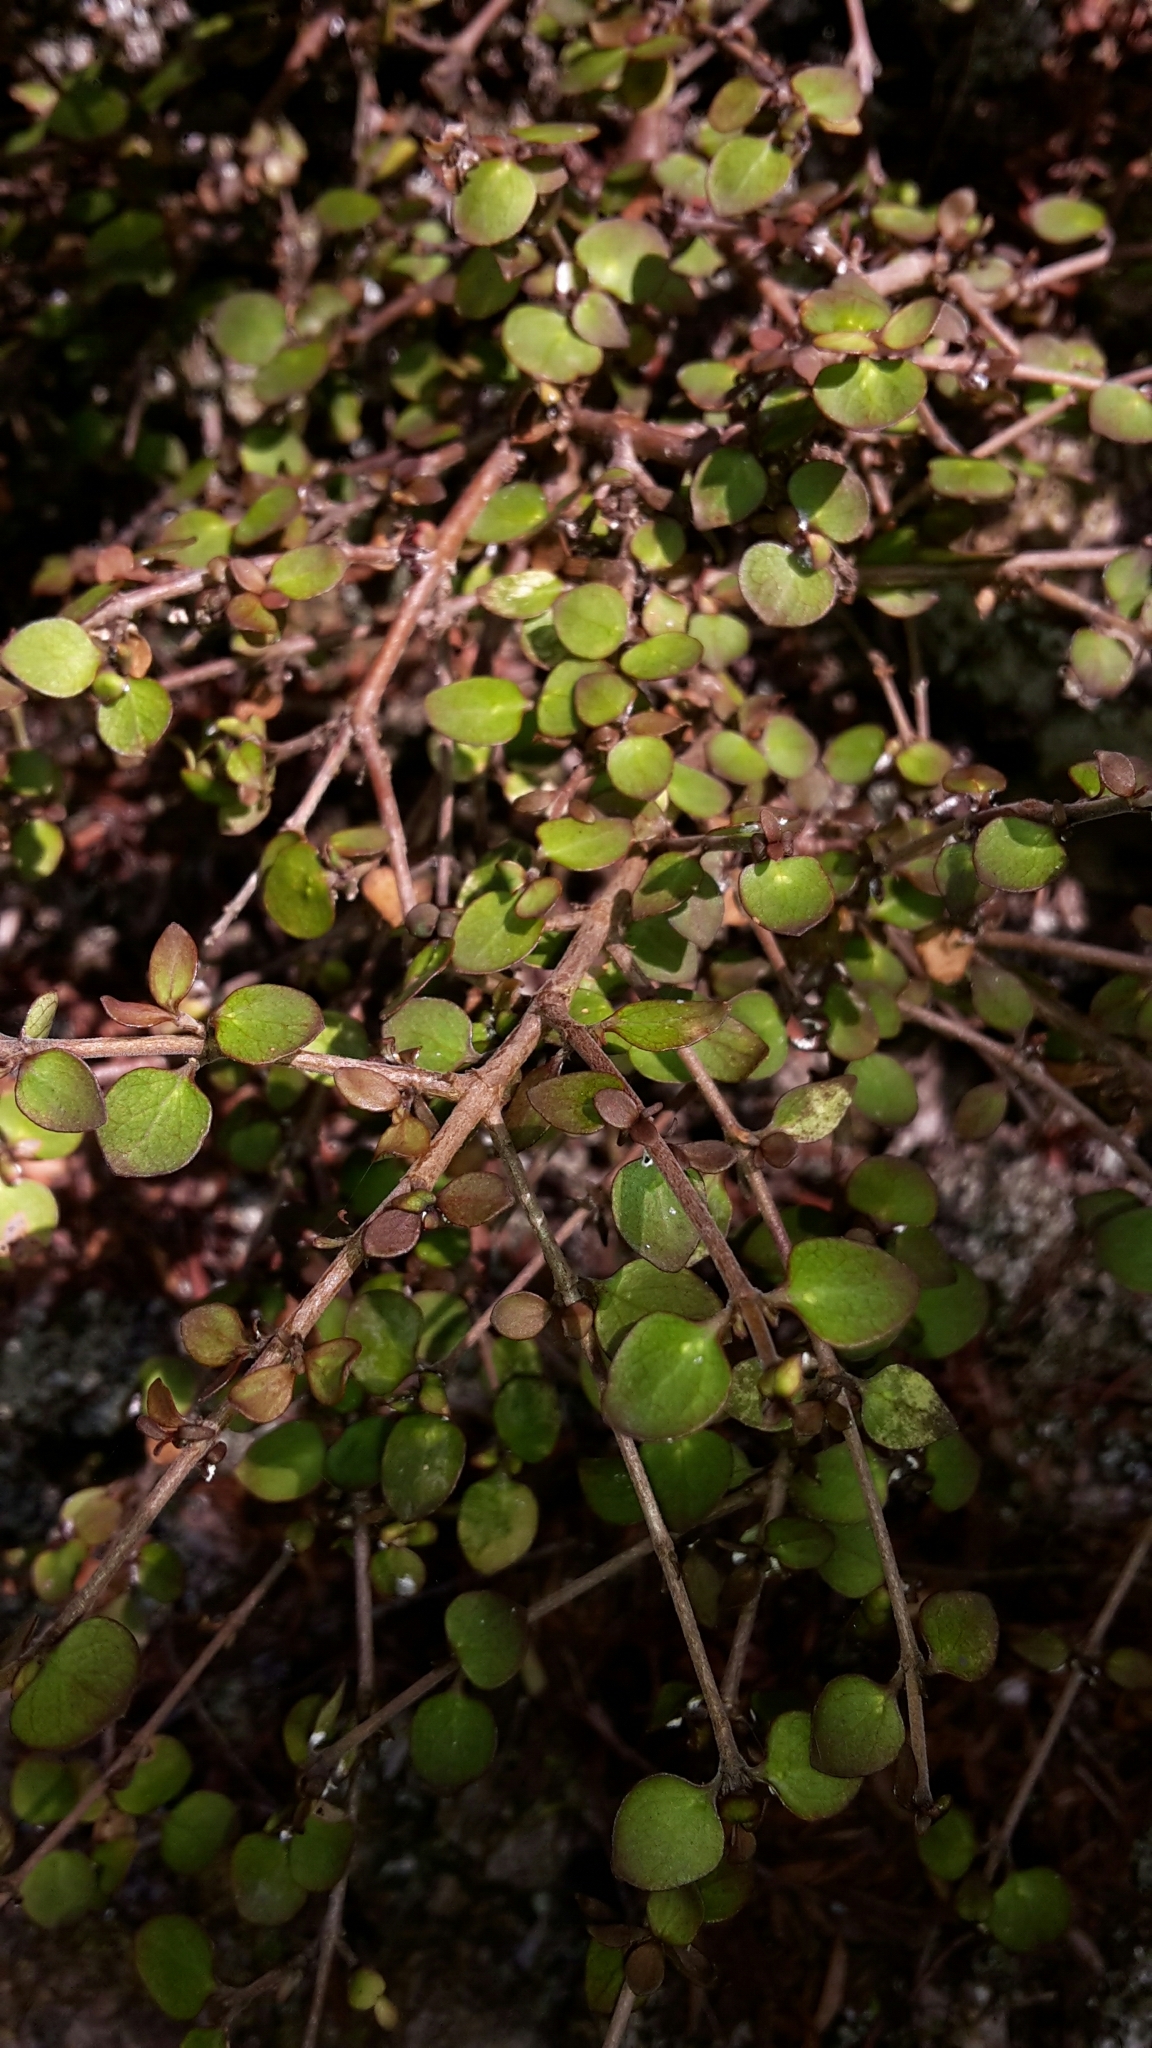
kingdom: Plantae
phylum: Tracheophyta
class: Magnoliopsida
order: Gentianales
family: Rubiaceae
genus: Coprosma
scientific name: Coprosma rhamnoides
